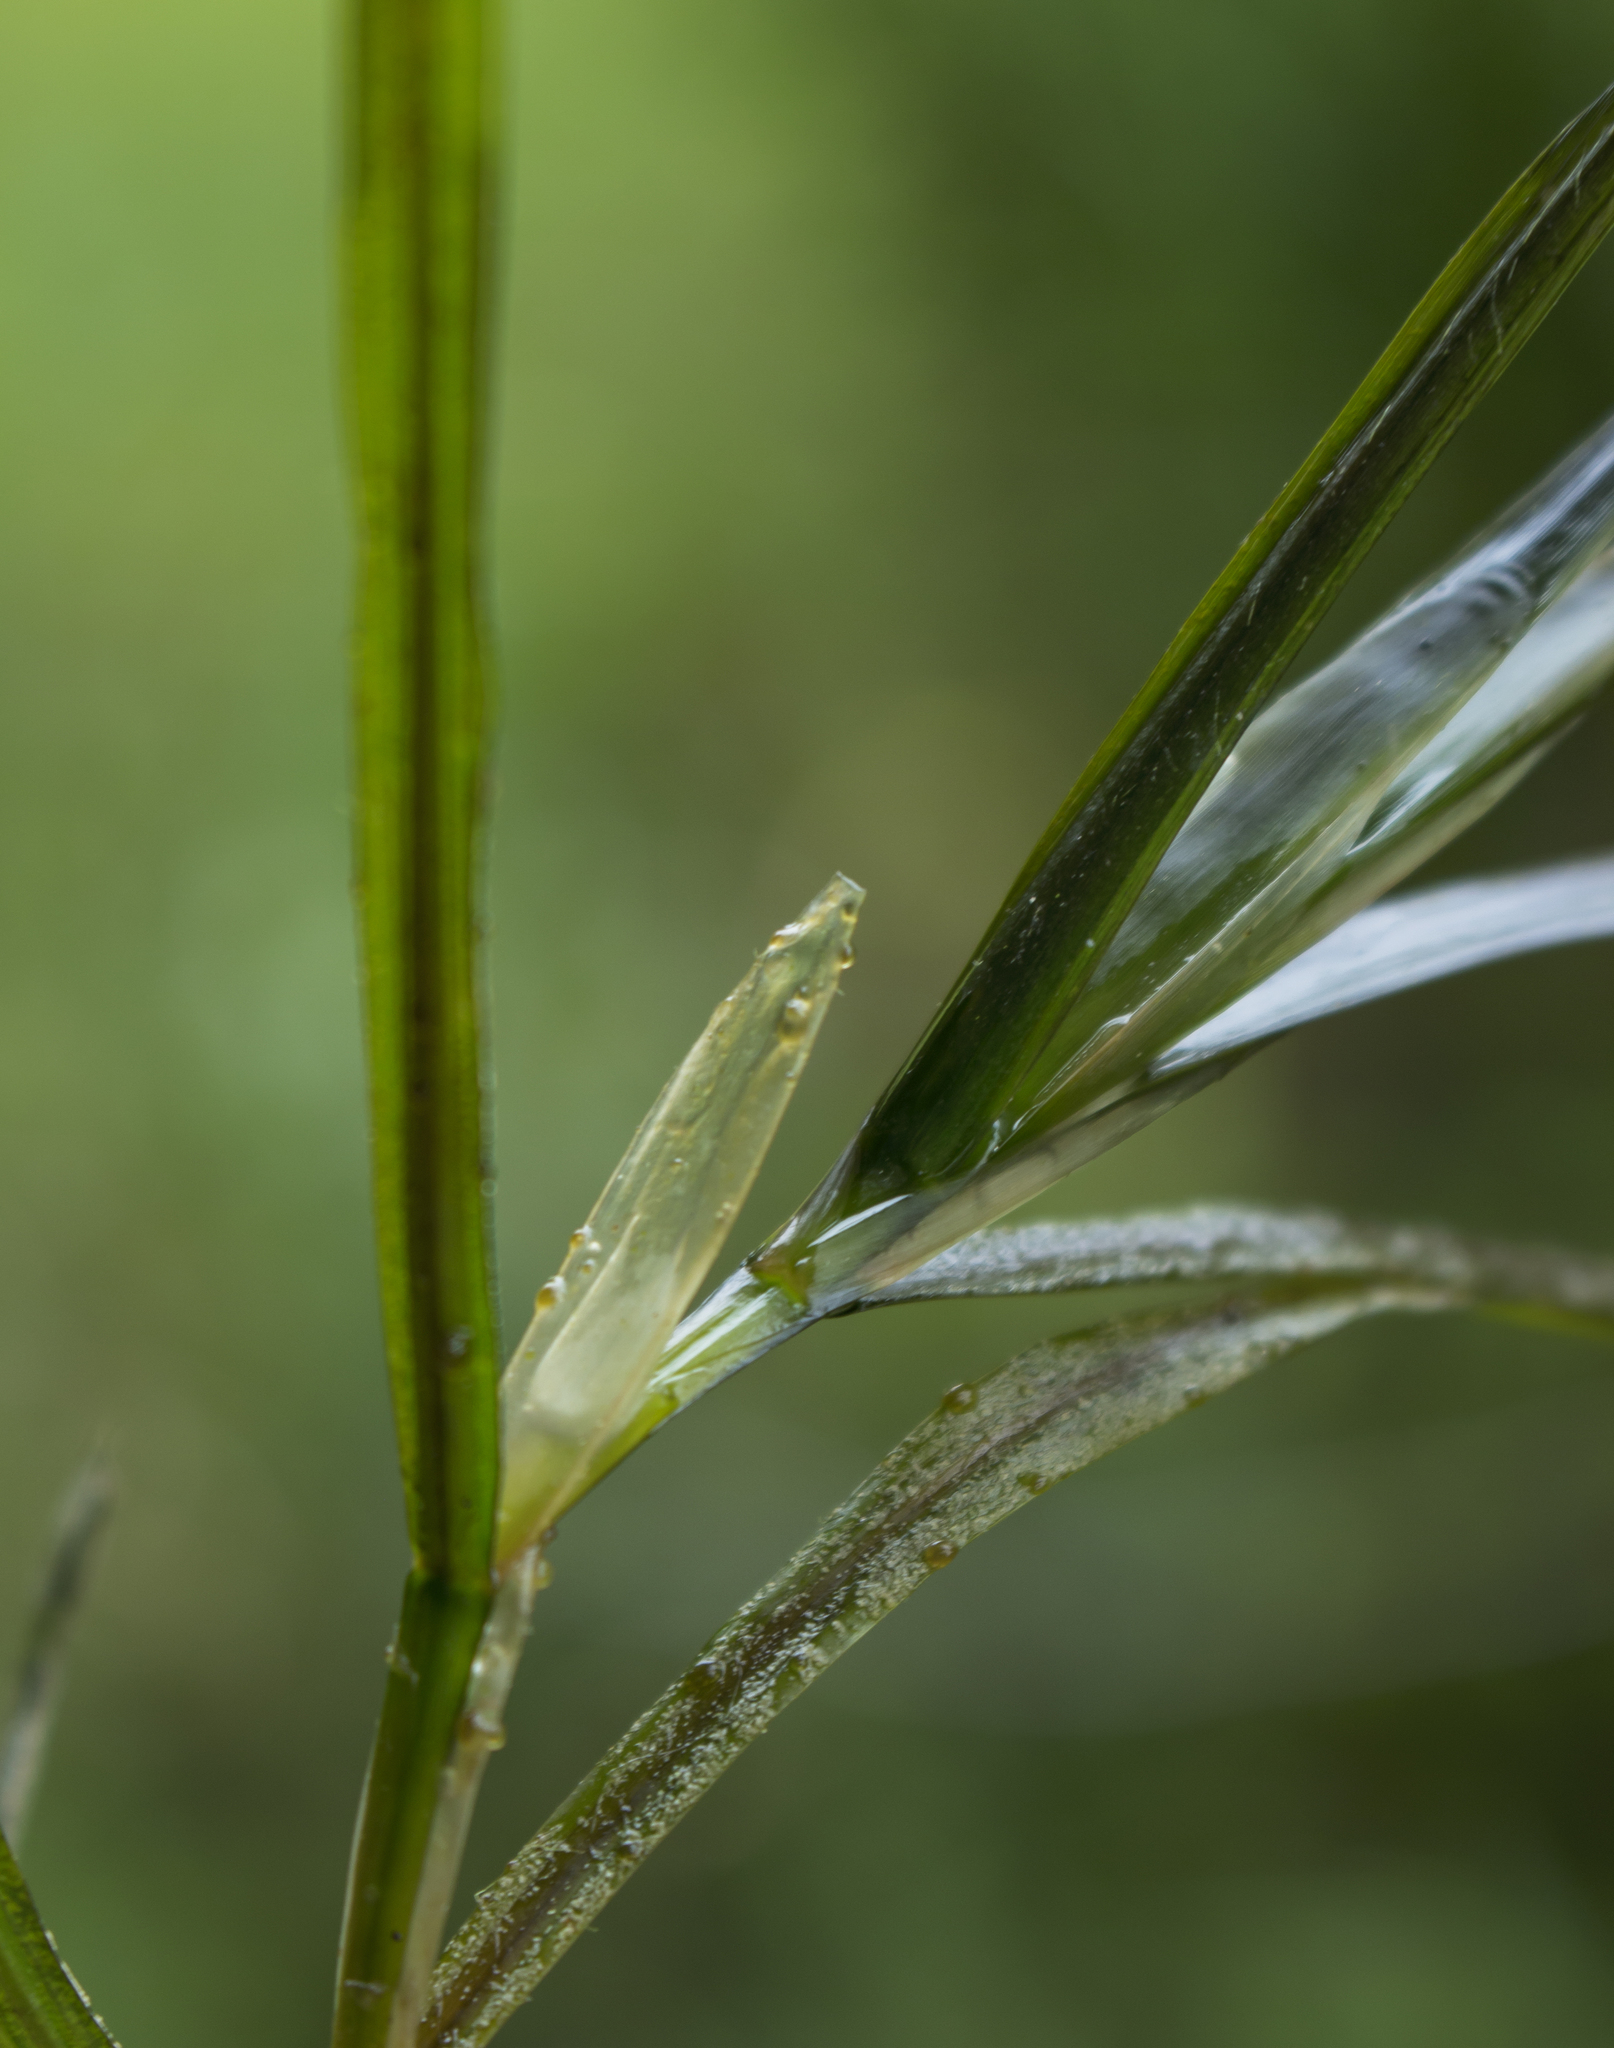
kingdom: Plantae
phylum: Tracheophyta
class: Liliopsida
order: Alismatales
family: Potamogetonaceae
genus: Potamogeton
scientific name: Potamogeton zosteriformis
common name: Eelgrass pondweed
